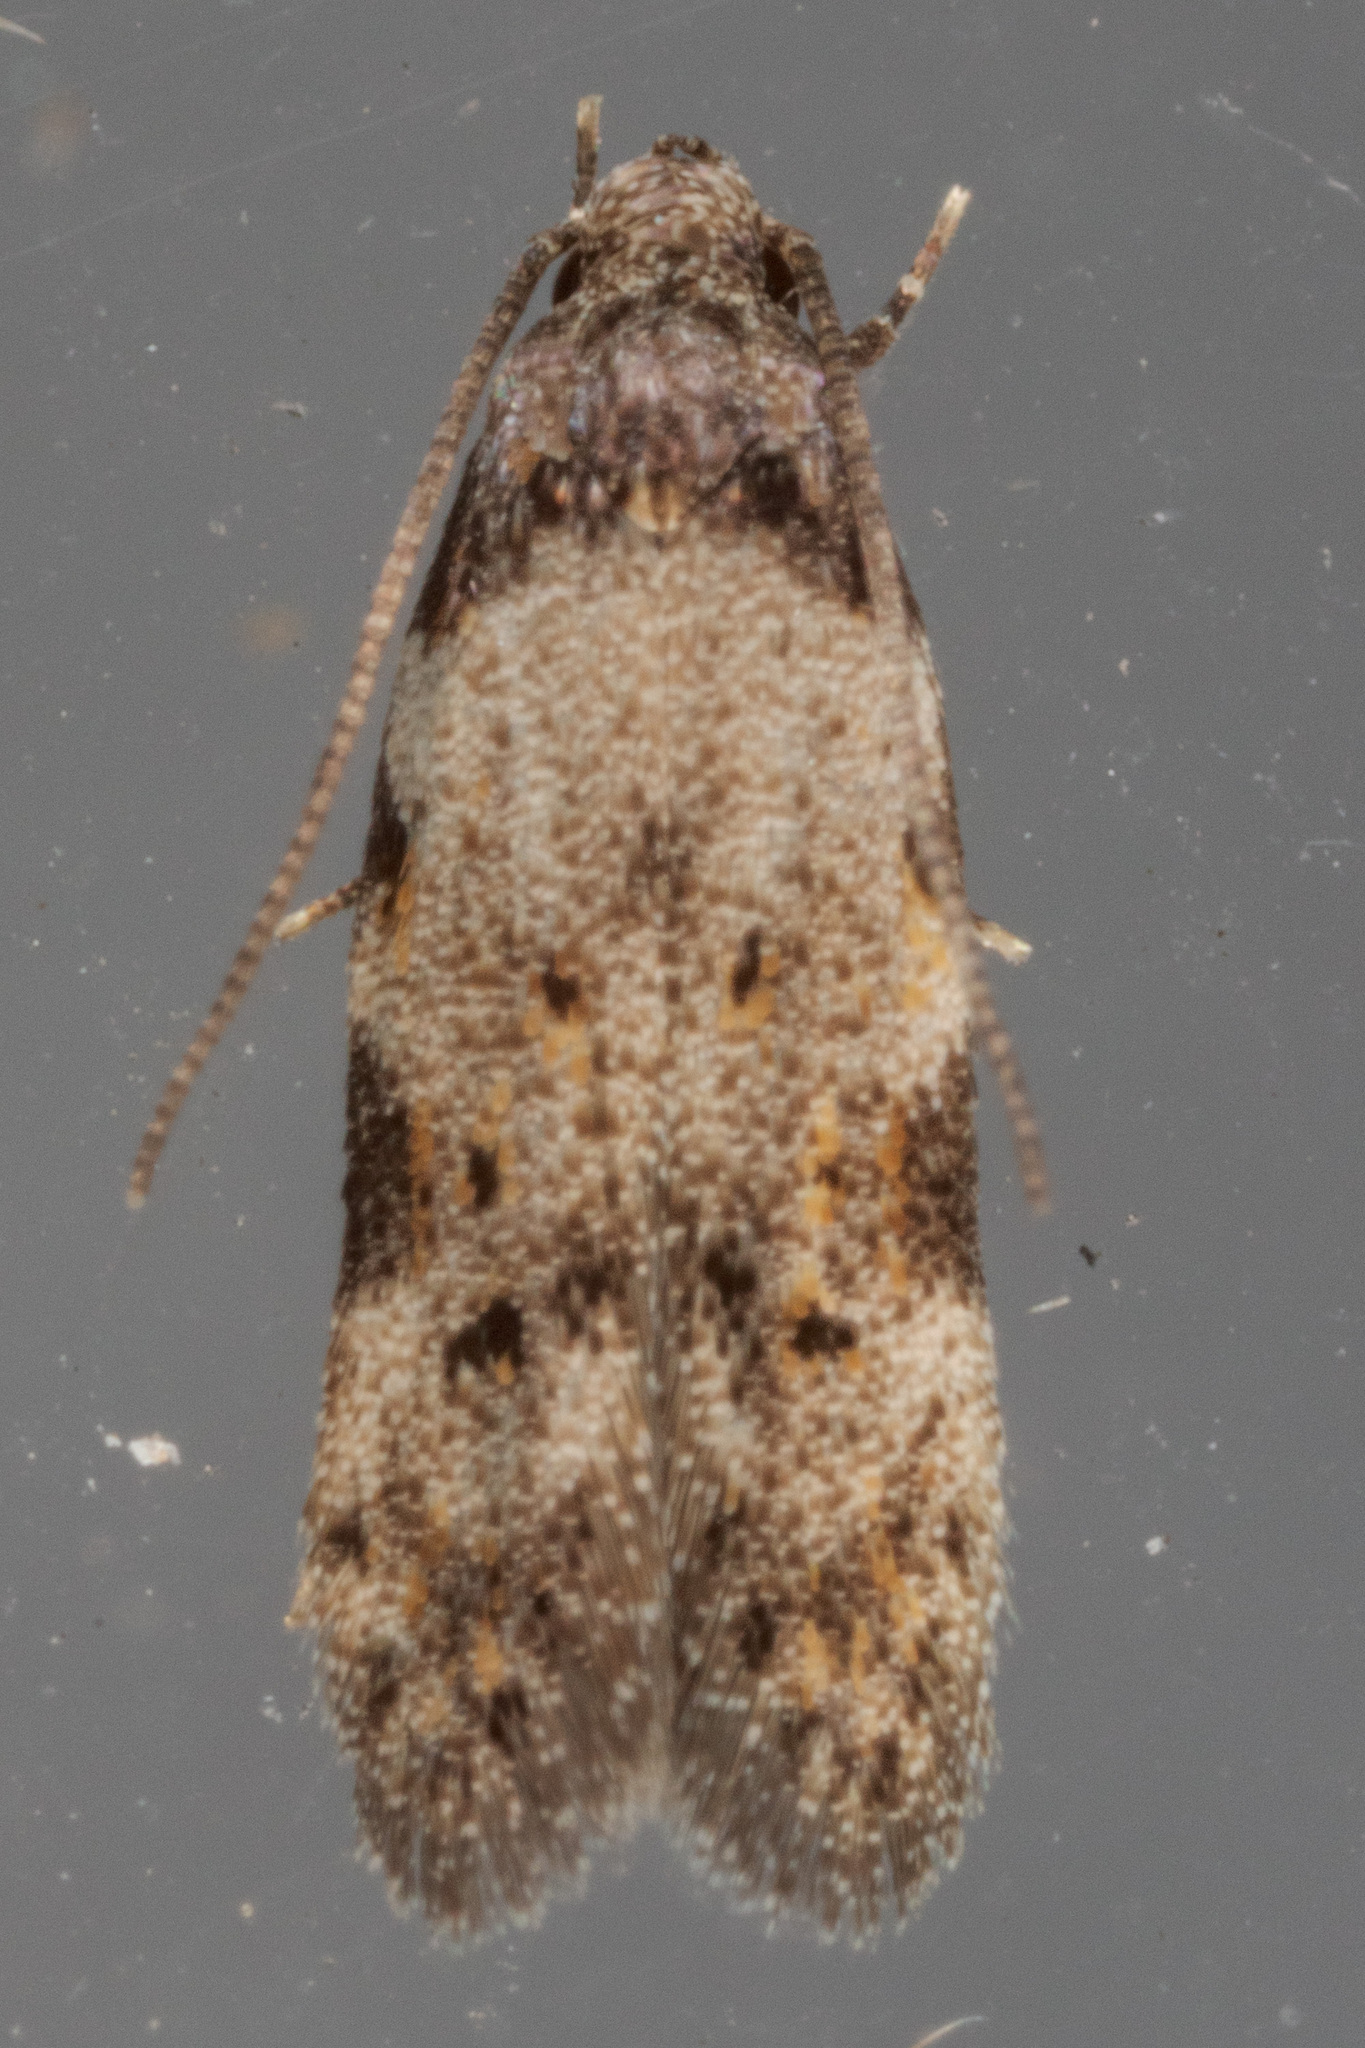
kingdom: Animalia
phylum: Arthropoda
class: Insecta
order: Lepidoptera
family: Autostichidae
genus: Taygete
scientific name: Taygete attributella
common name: Triangle-marked twirler moth
